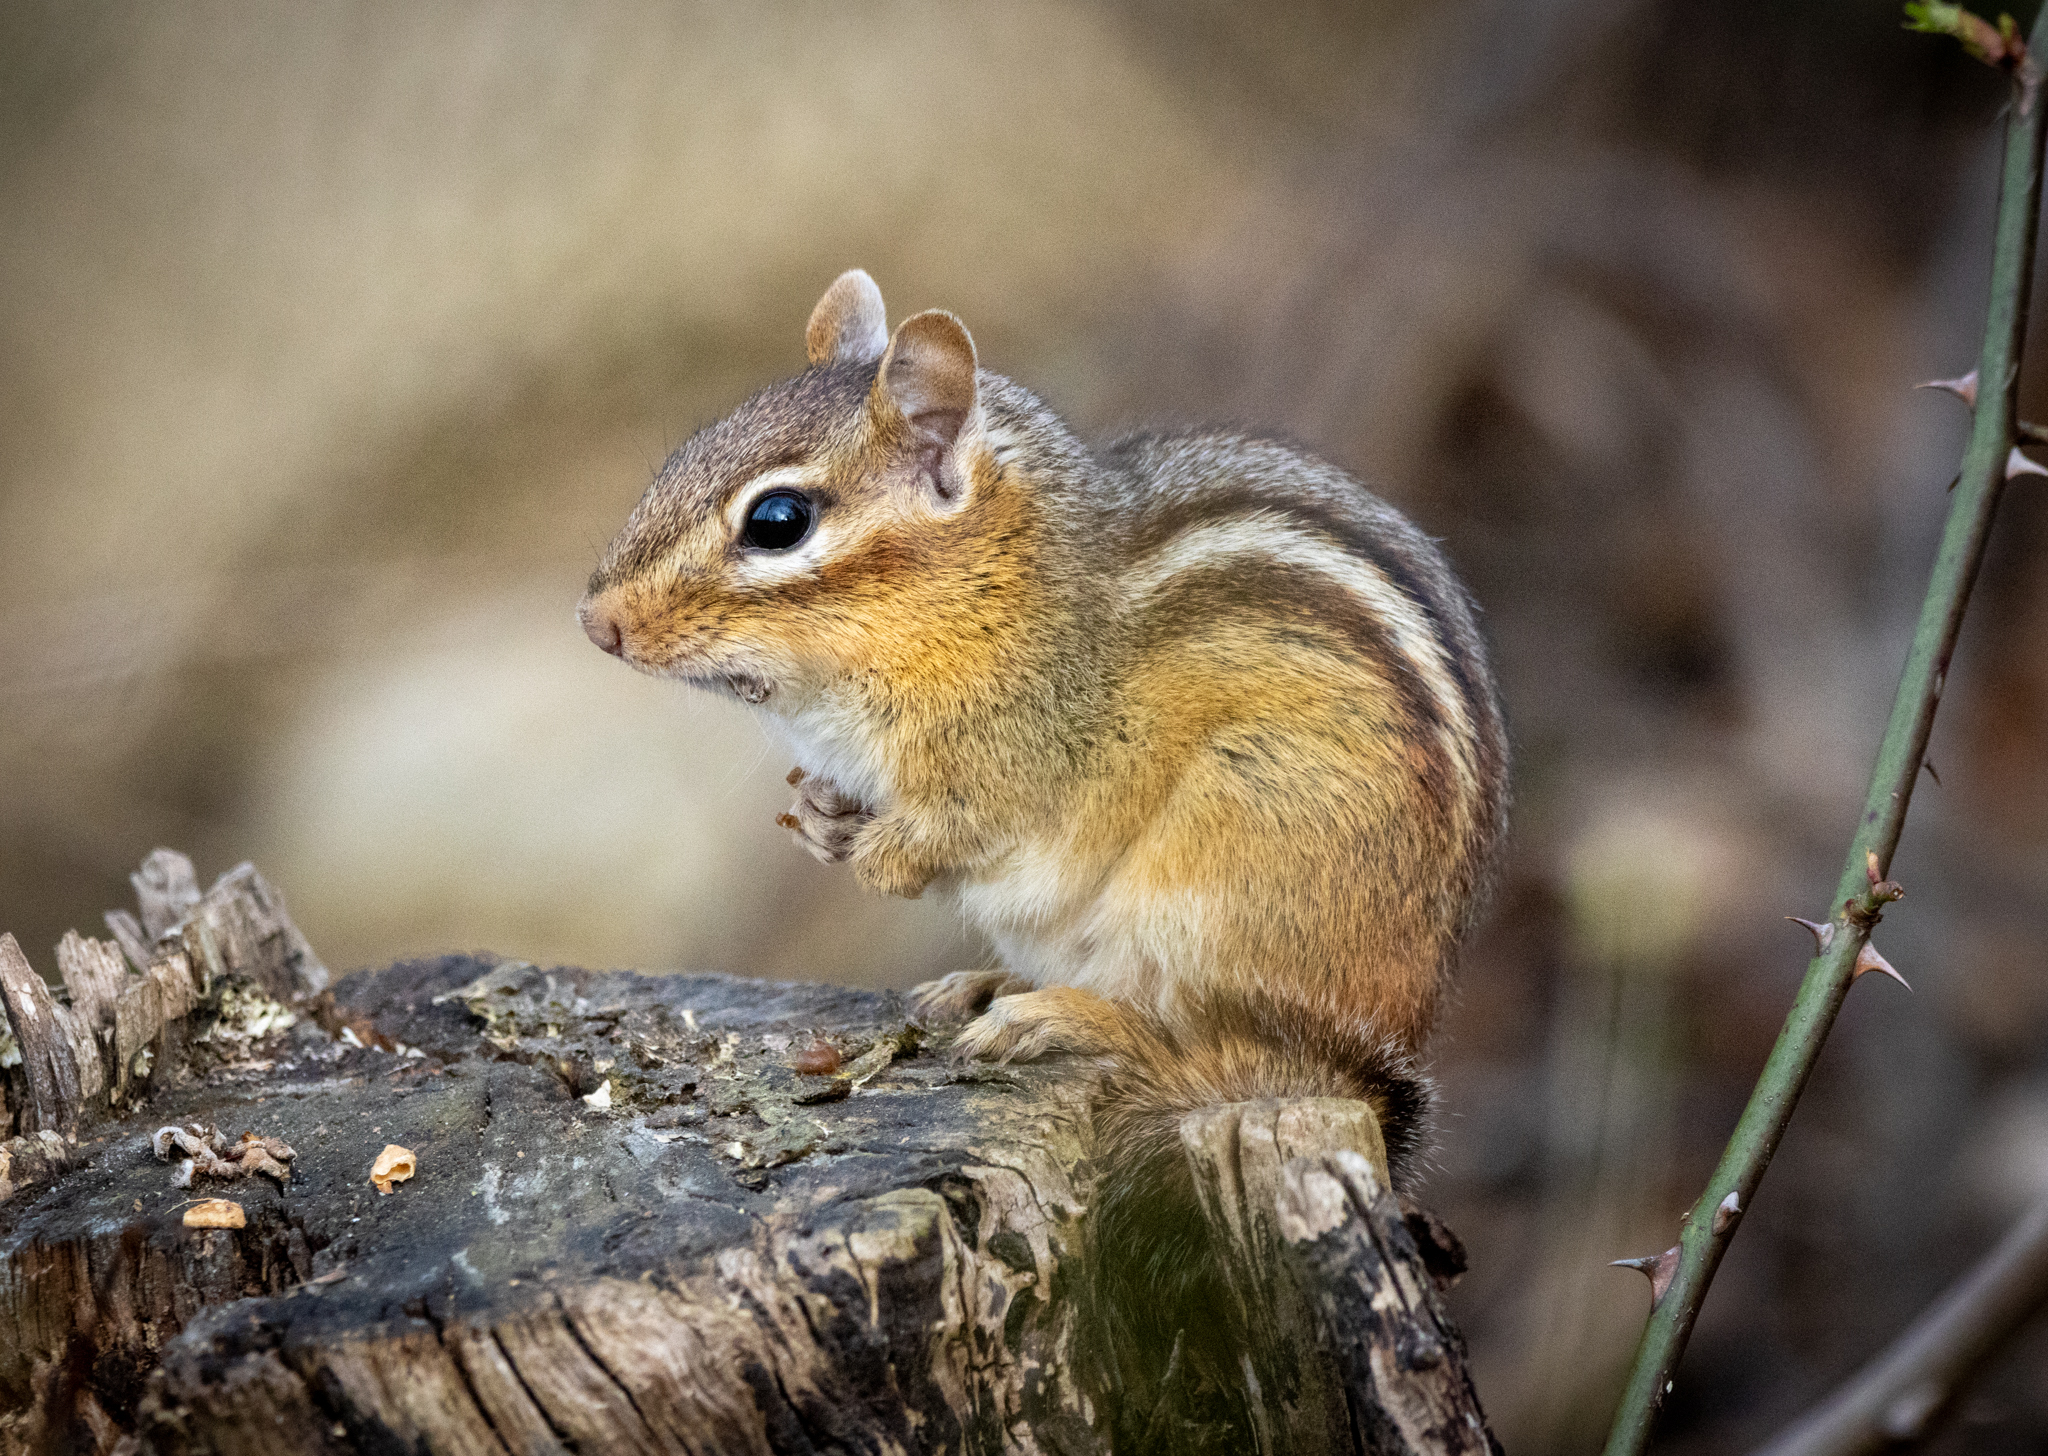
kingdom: Animalia
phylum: Chordata
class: Mammalia
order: Rodentia
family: Sciuridae
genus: Tamias
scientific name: Tamias striatus
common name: Eastern chipmunk
